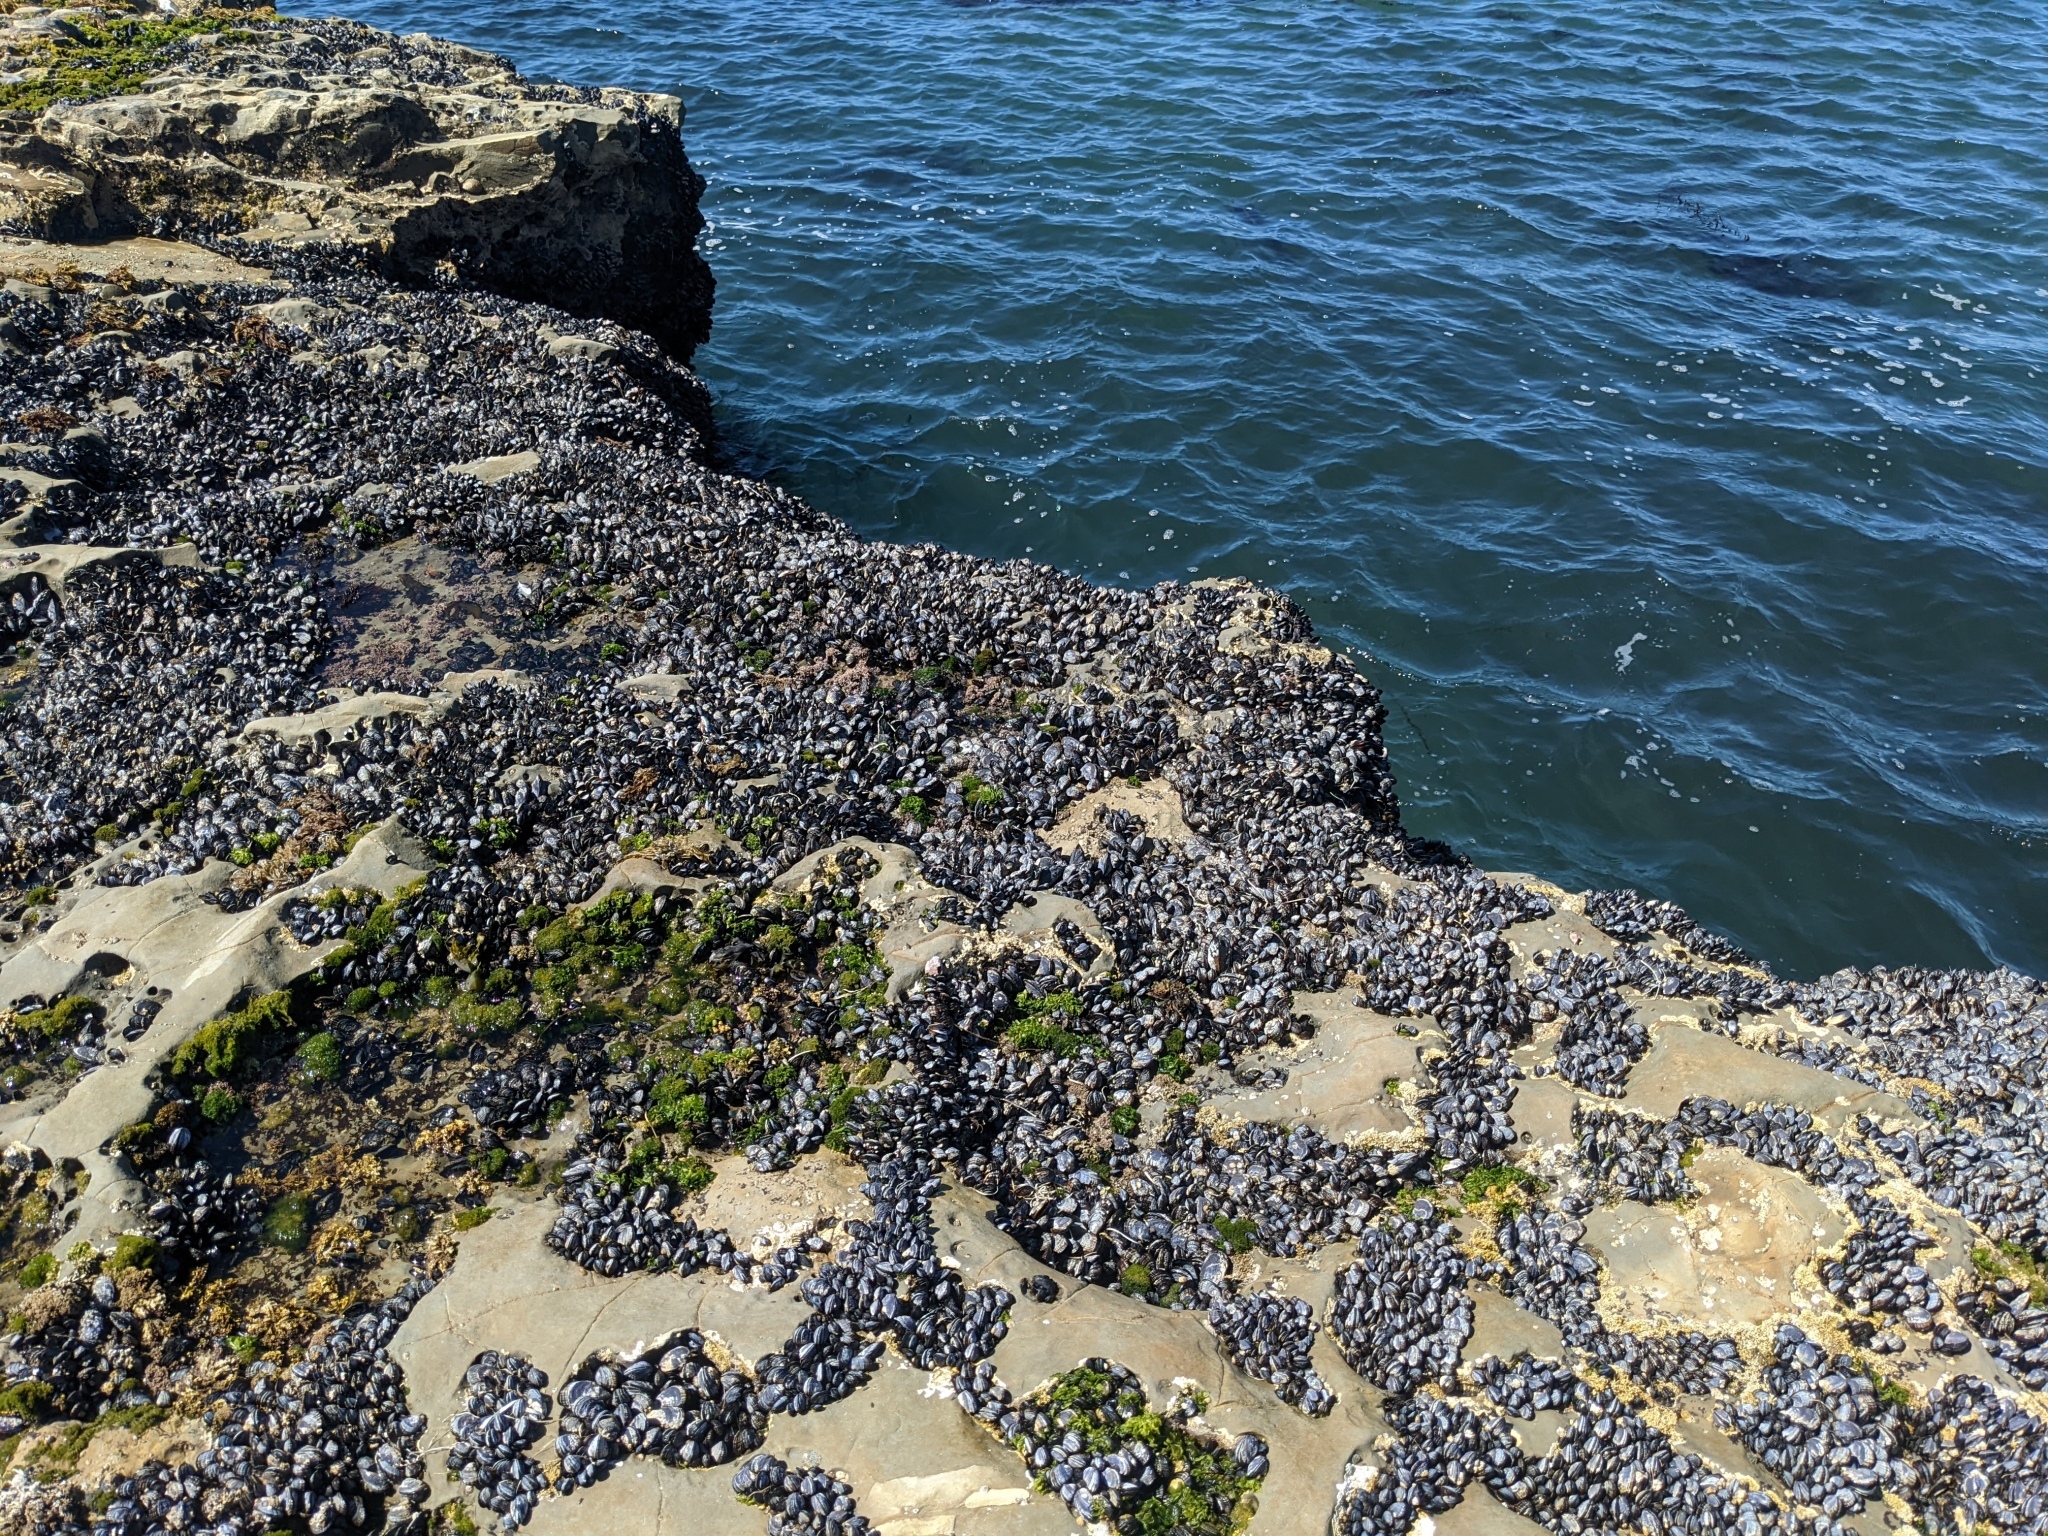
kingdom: Animalia
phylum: Mollusca
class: Bivalvia
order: Mytilida
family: Mytilidae
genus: Mytilus
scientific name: Mytilus californianus
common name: California mussel
